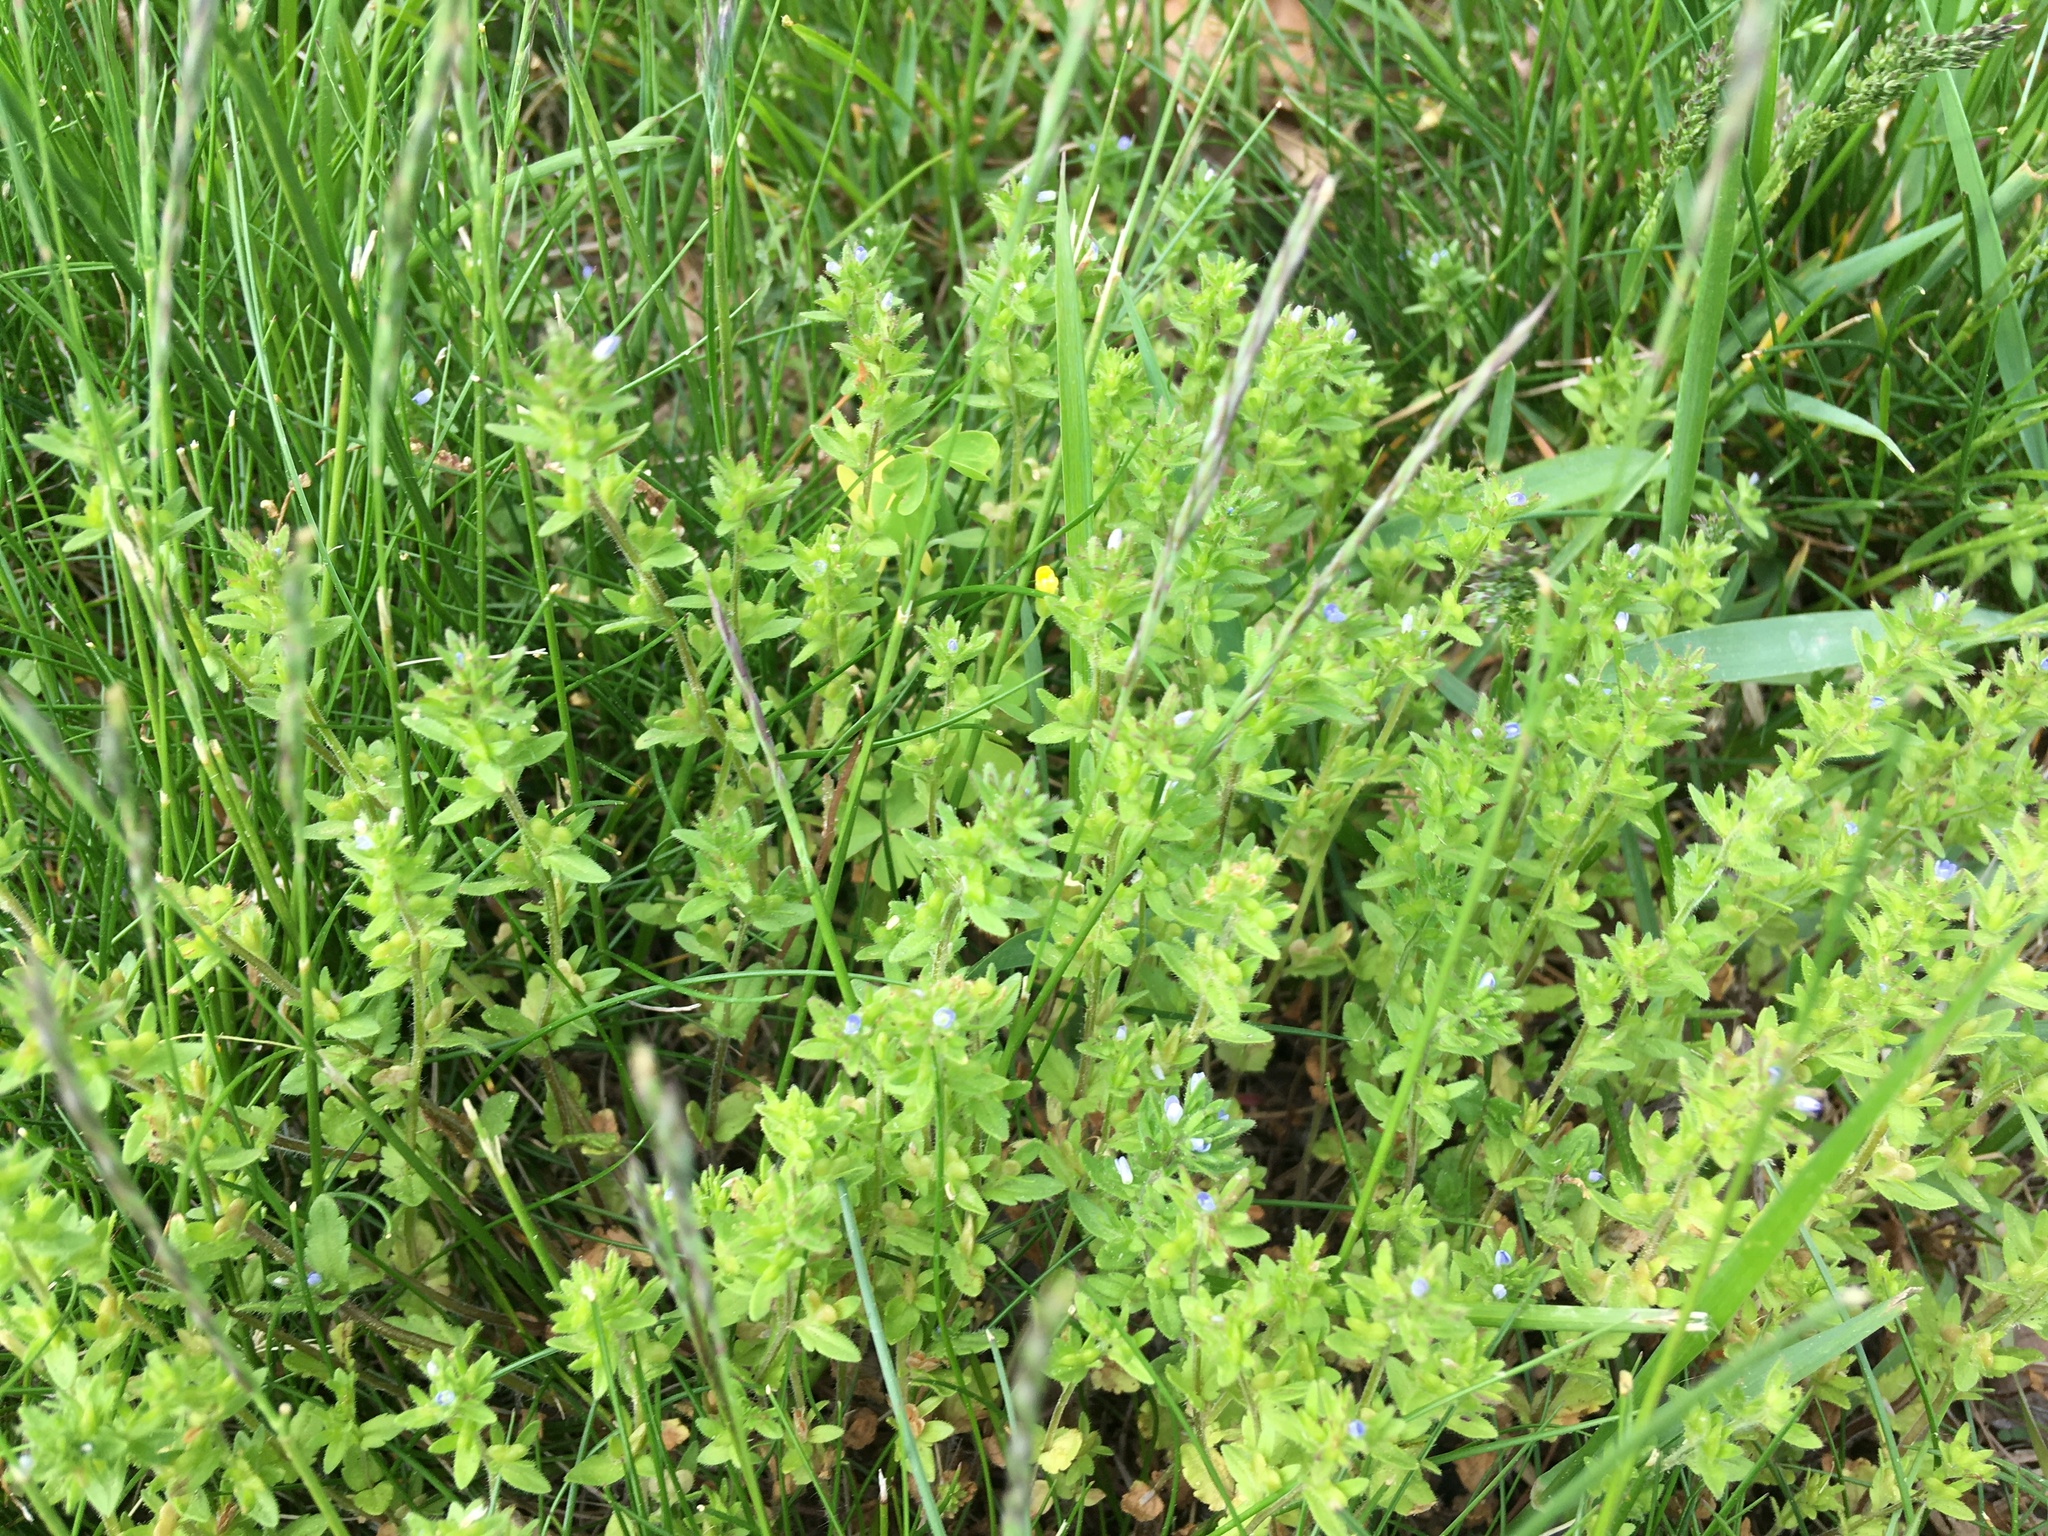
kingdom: Plantae
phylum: Tracheophyta
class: Magnoliopsida
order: Lamiales
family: Plantaginaceae
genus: Veronica
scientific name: Veronica arvensis
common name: Corn speedwell
